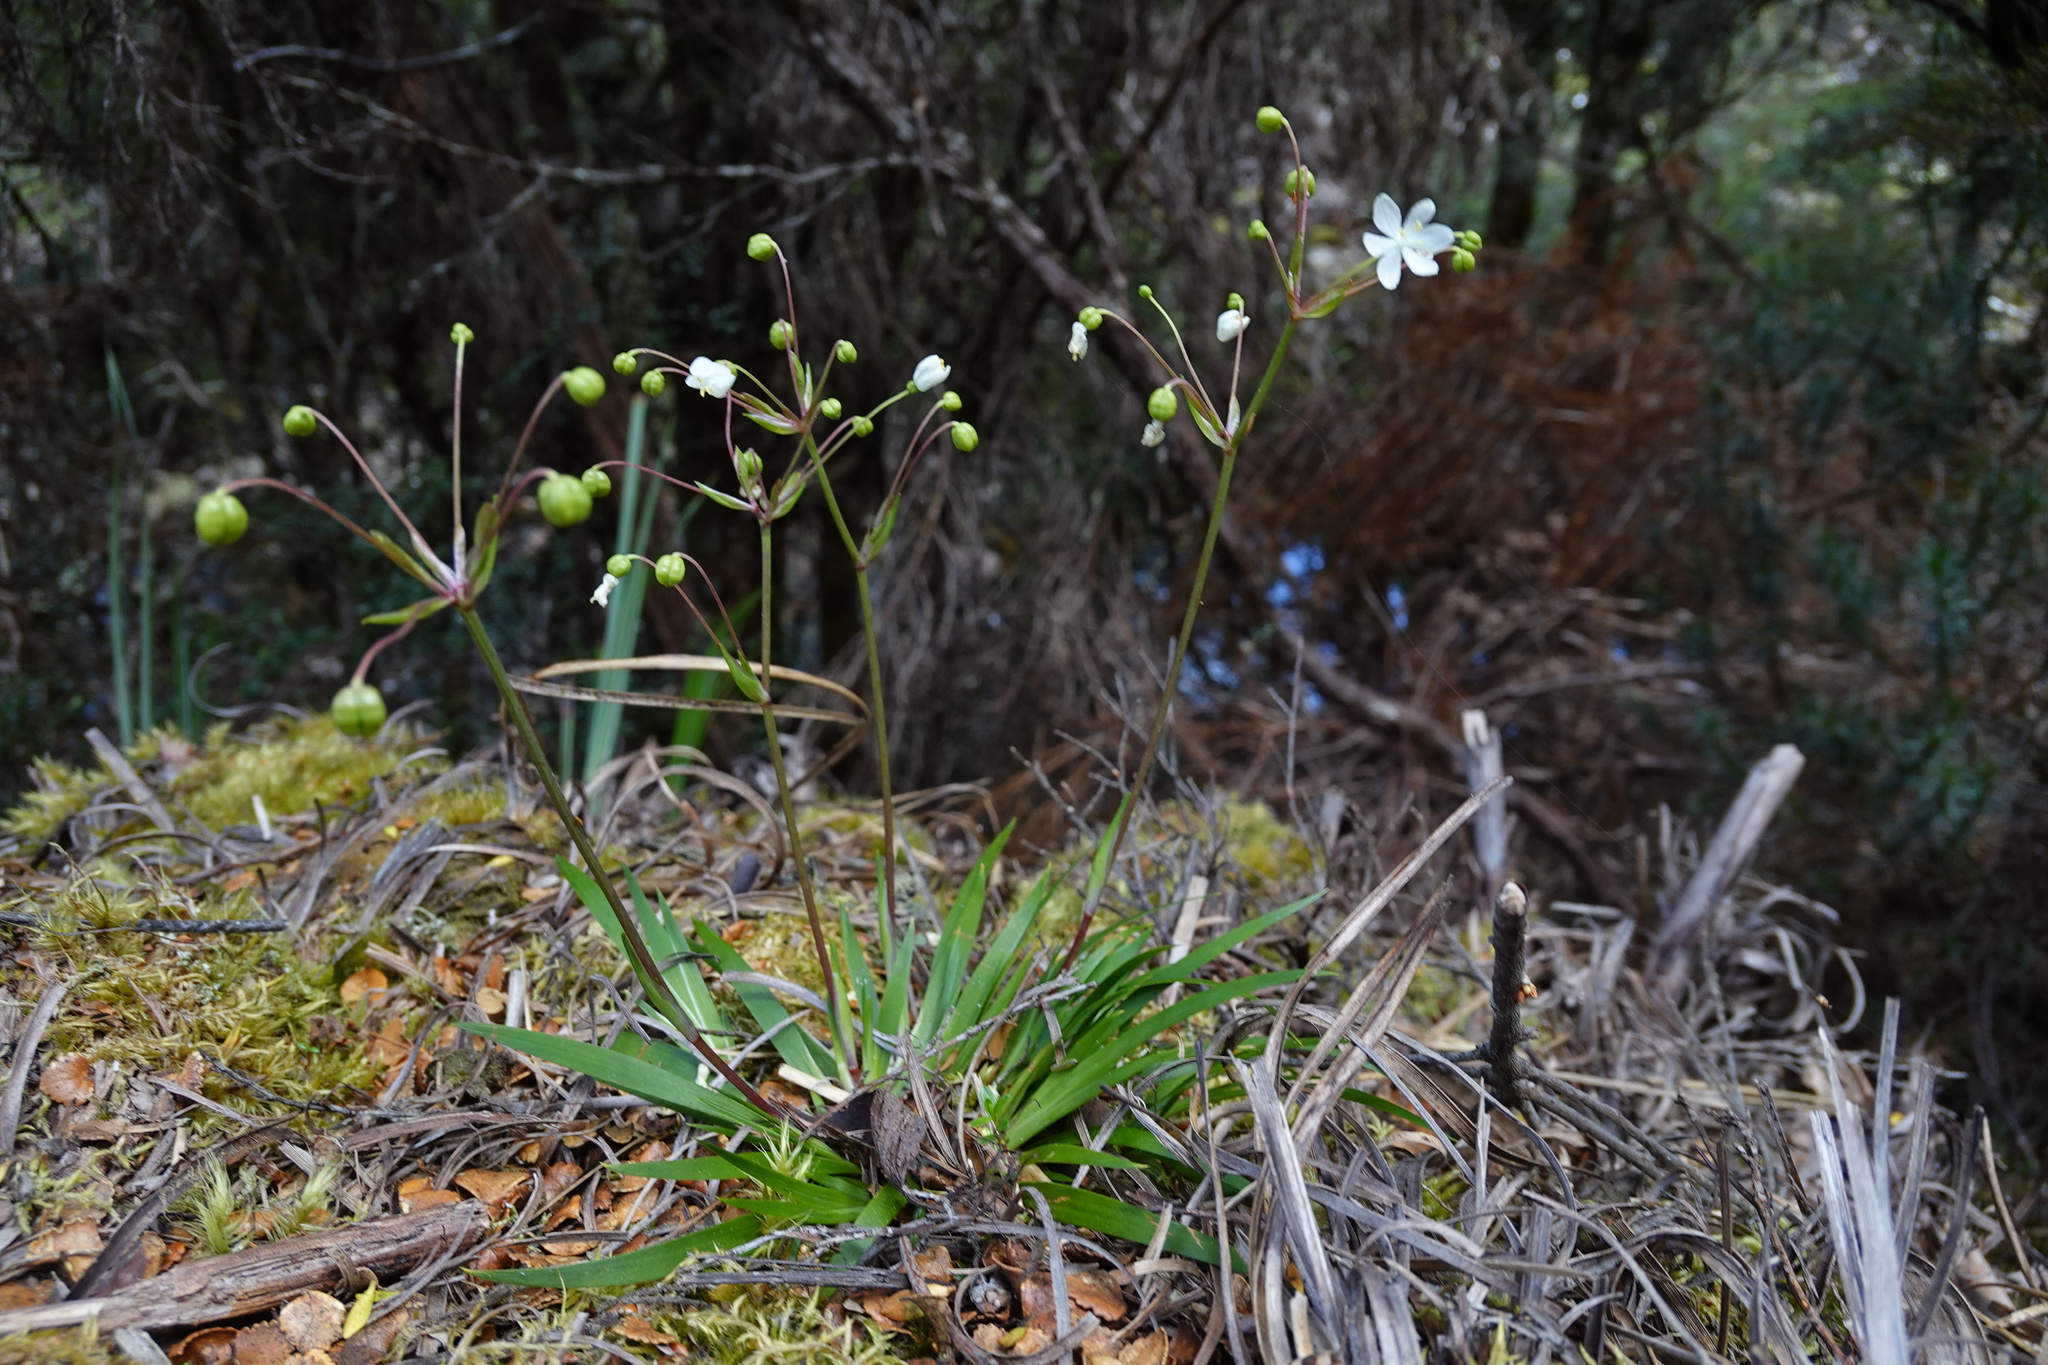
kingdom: Plantae
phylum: Tracheophyta
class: Liliopsida
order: Asparagales
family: Iridaceae
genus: Libertia
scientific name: Libertia pulchella
